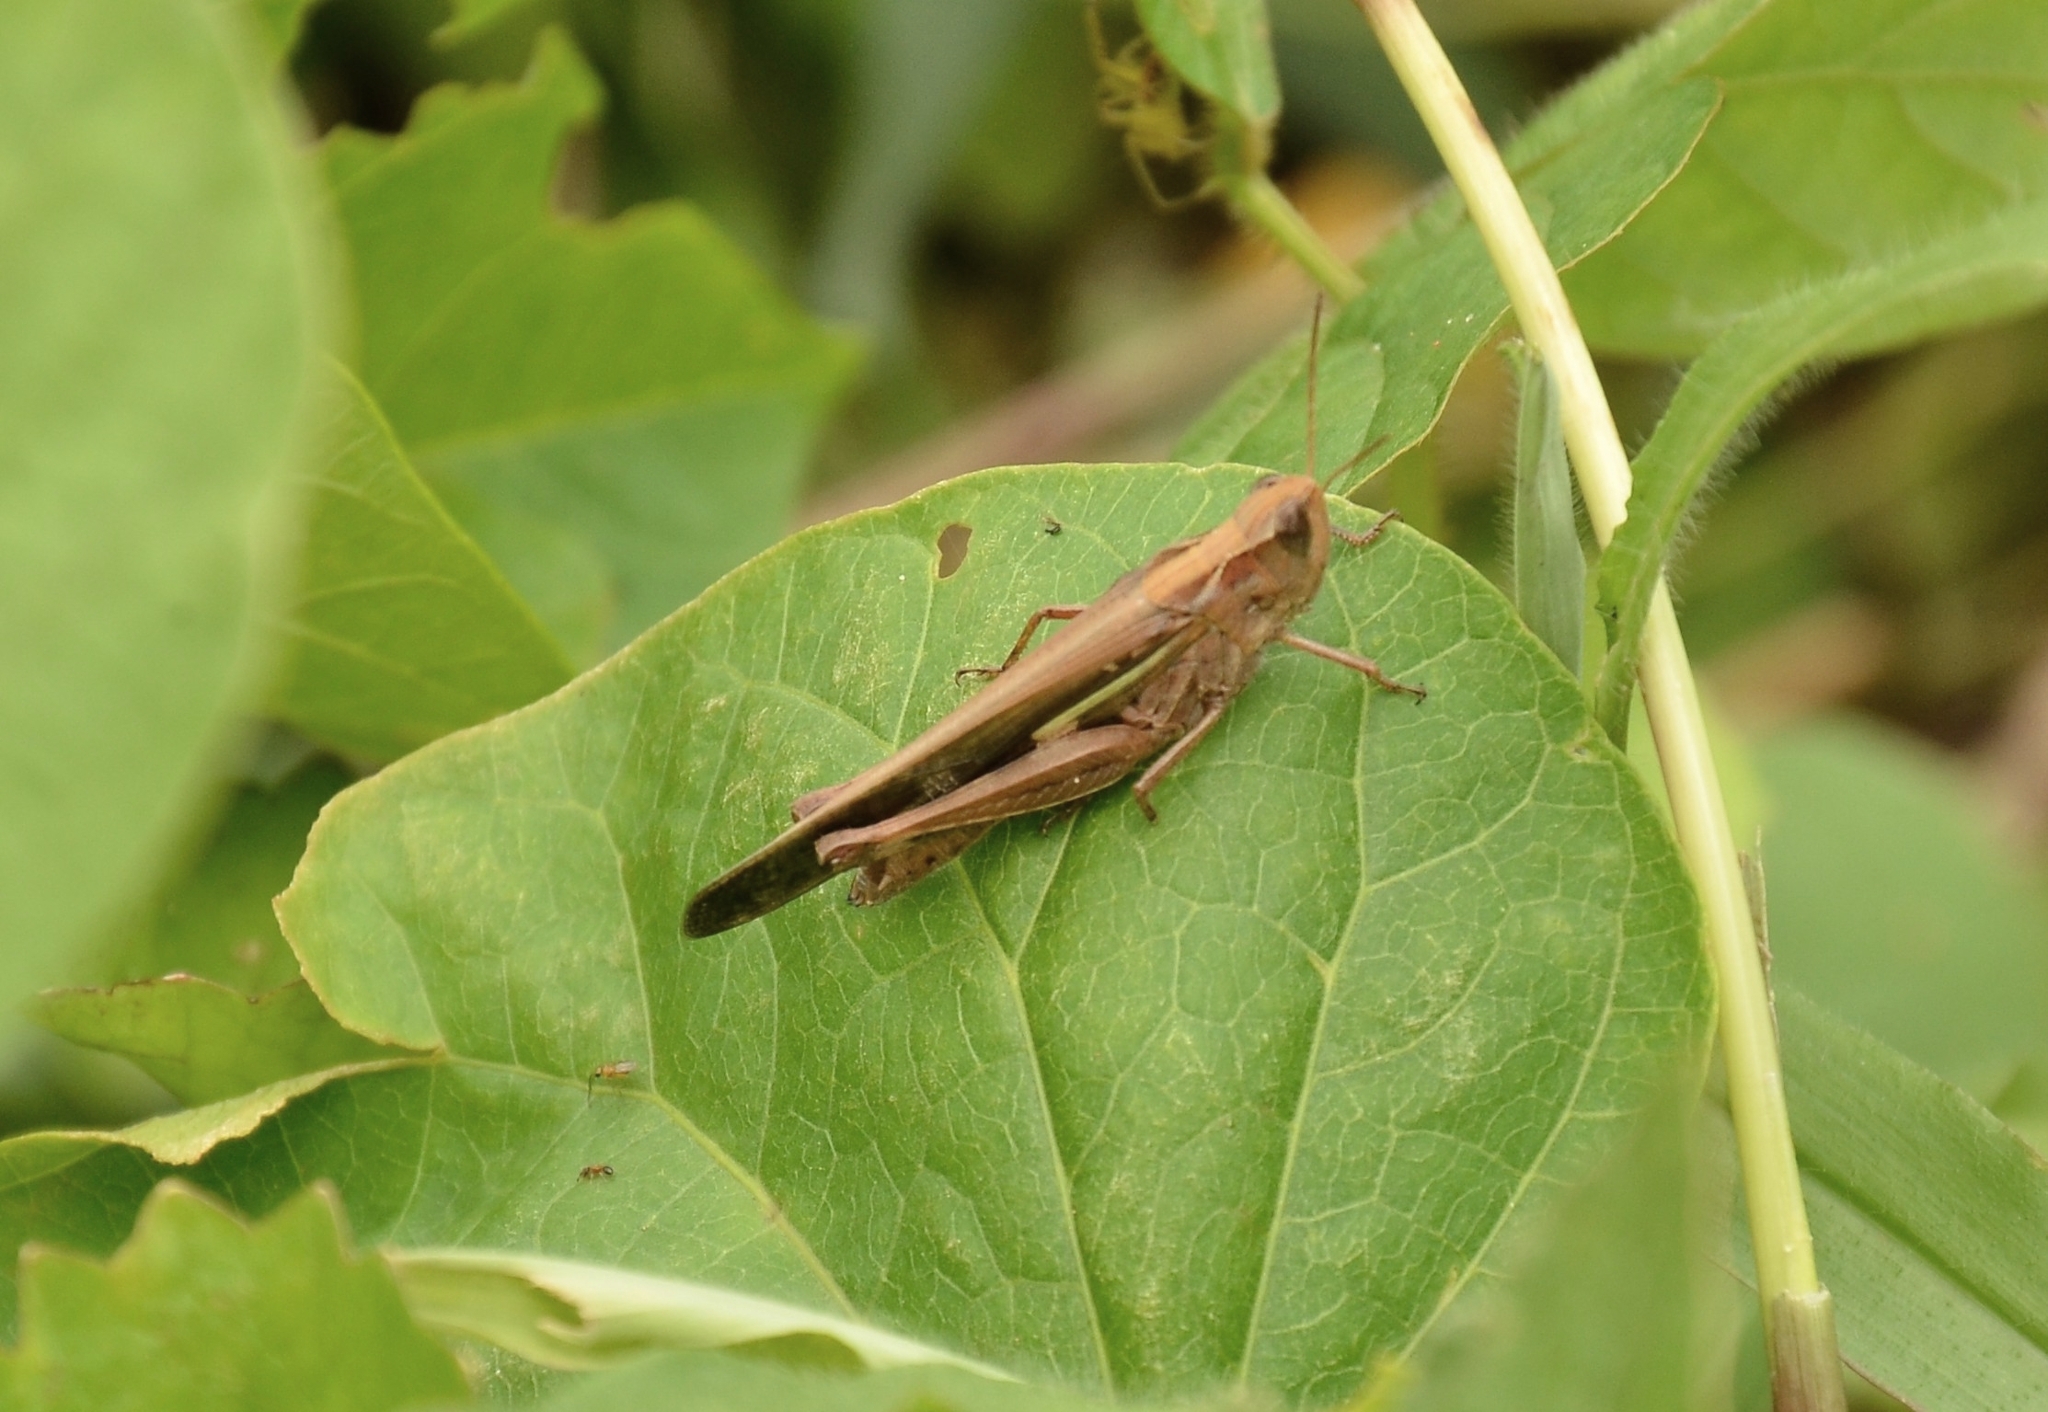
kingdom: Animalia
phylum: Arthropoda
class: Insecta
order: Orthoptera
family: Acrididae
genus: Aiolopus
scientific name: Aiolopus thalassinus
